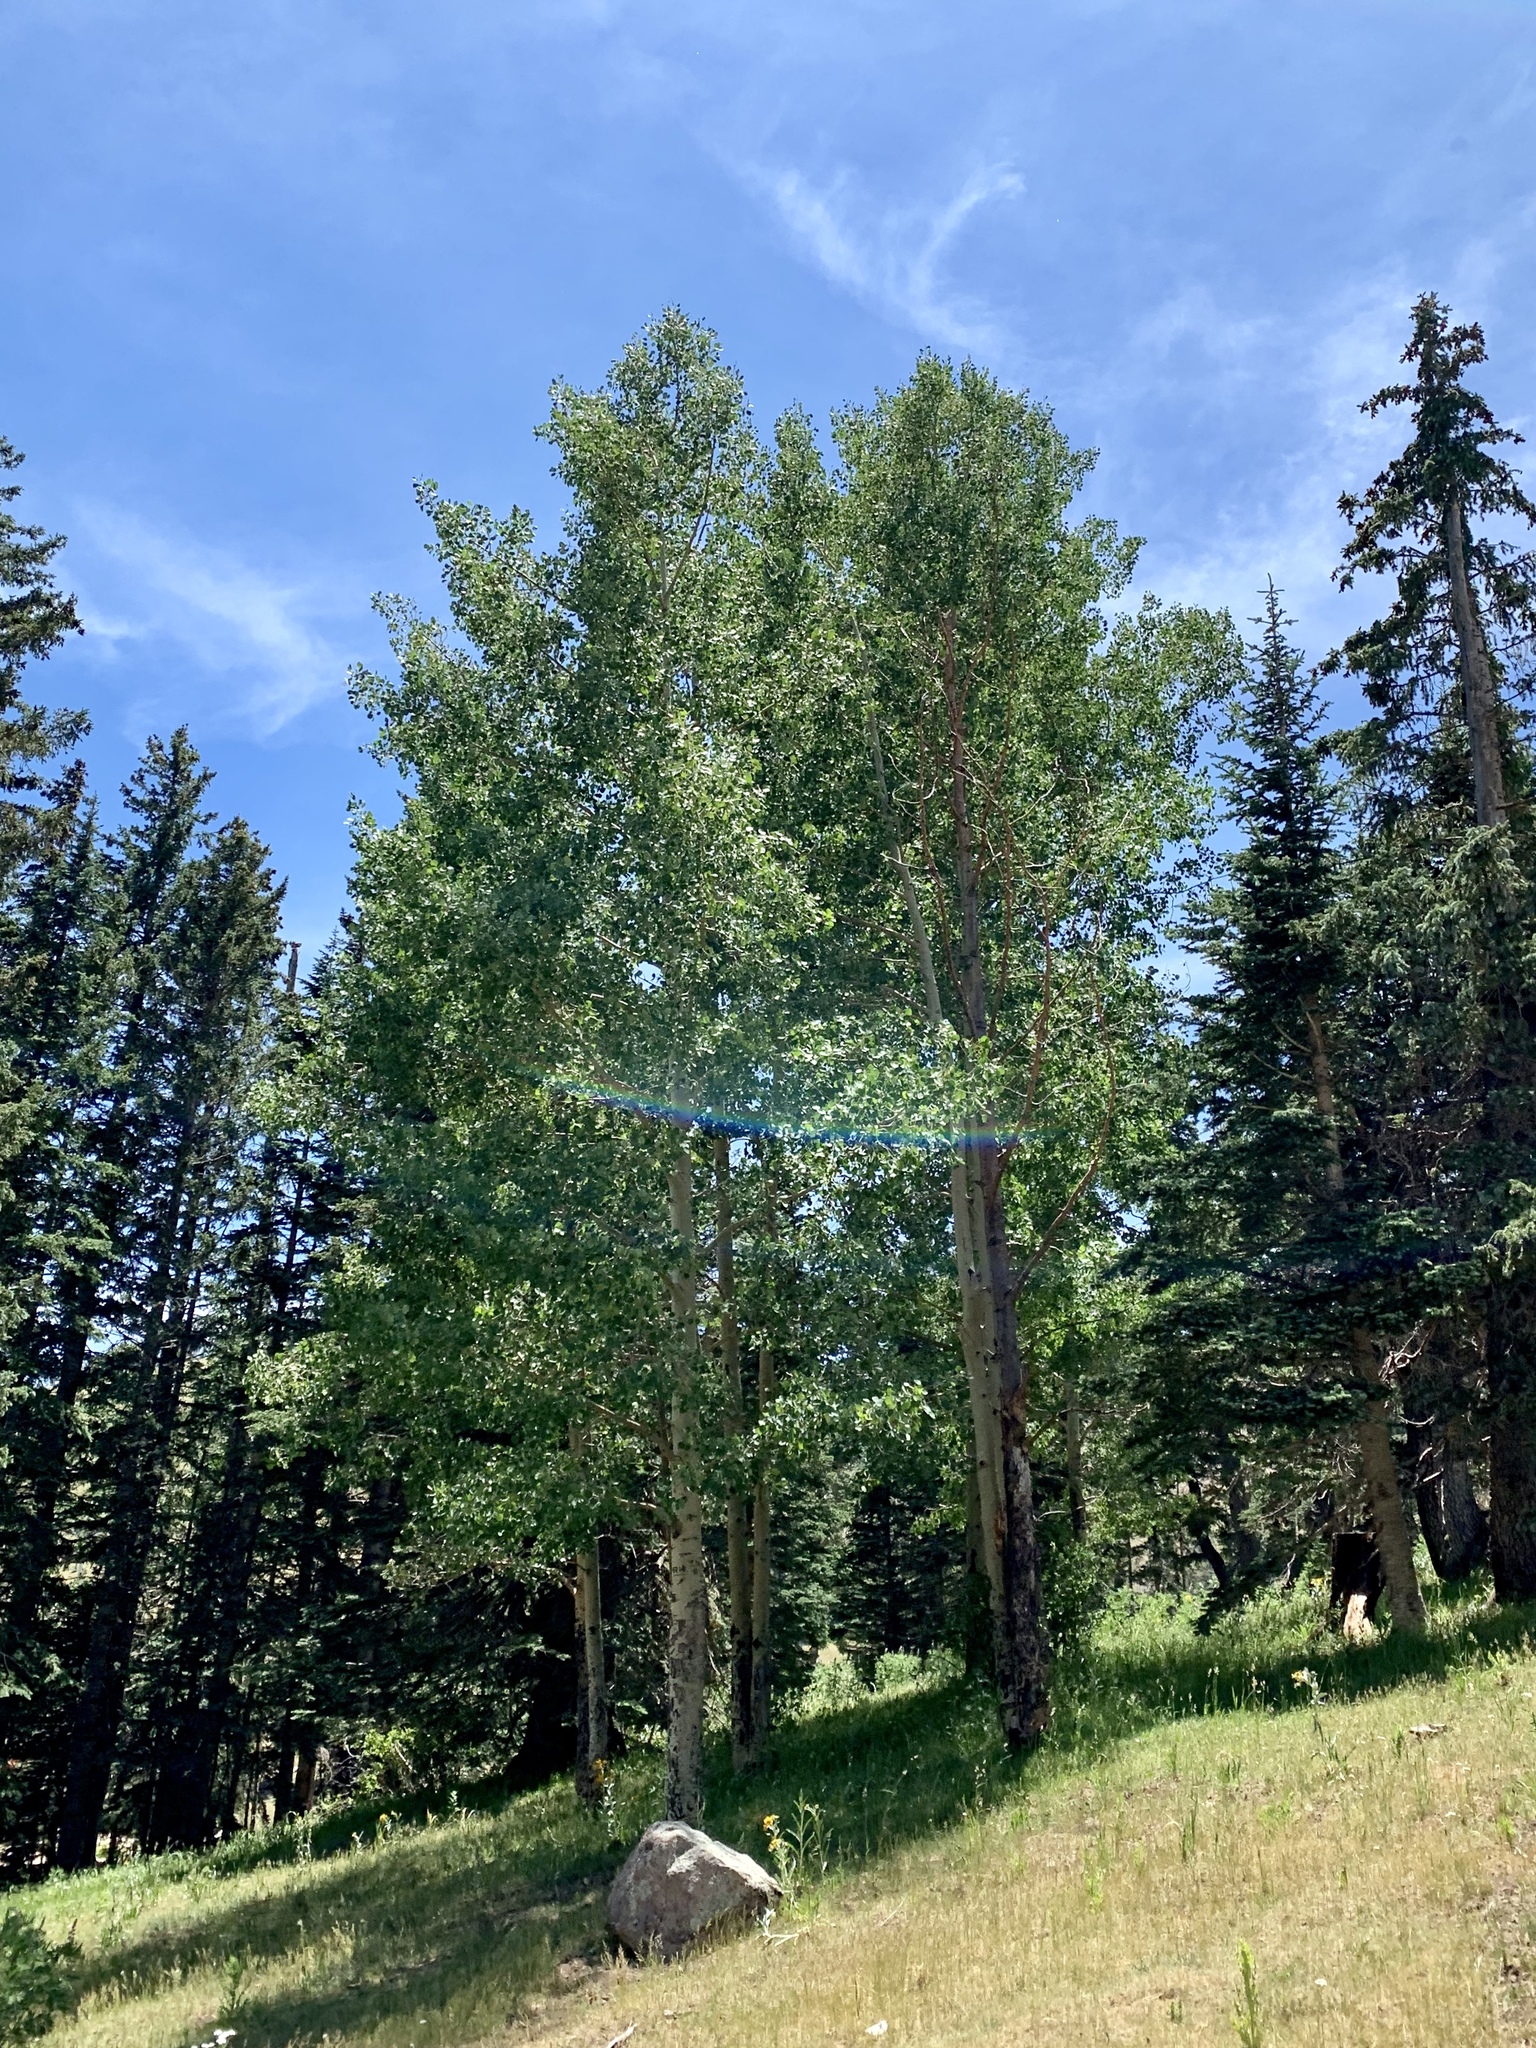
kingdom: Plantae
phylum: Tracheophyta
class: Magnoliopsida
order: Malpighiales
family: Salicaceae
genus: Populus
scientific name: Populus tremuloides
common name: Quaking aspen
